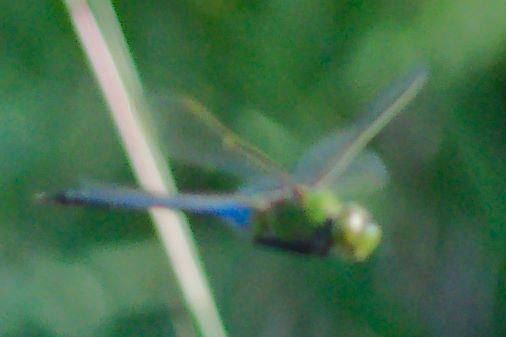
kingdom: Animalia
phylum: Arthropoda
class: Insecta
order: Odonata
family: Aeshnidae
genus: Anax
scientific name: Anax junius
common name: Common green darner
